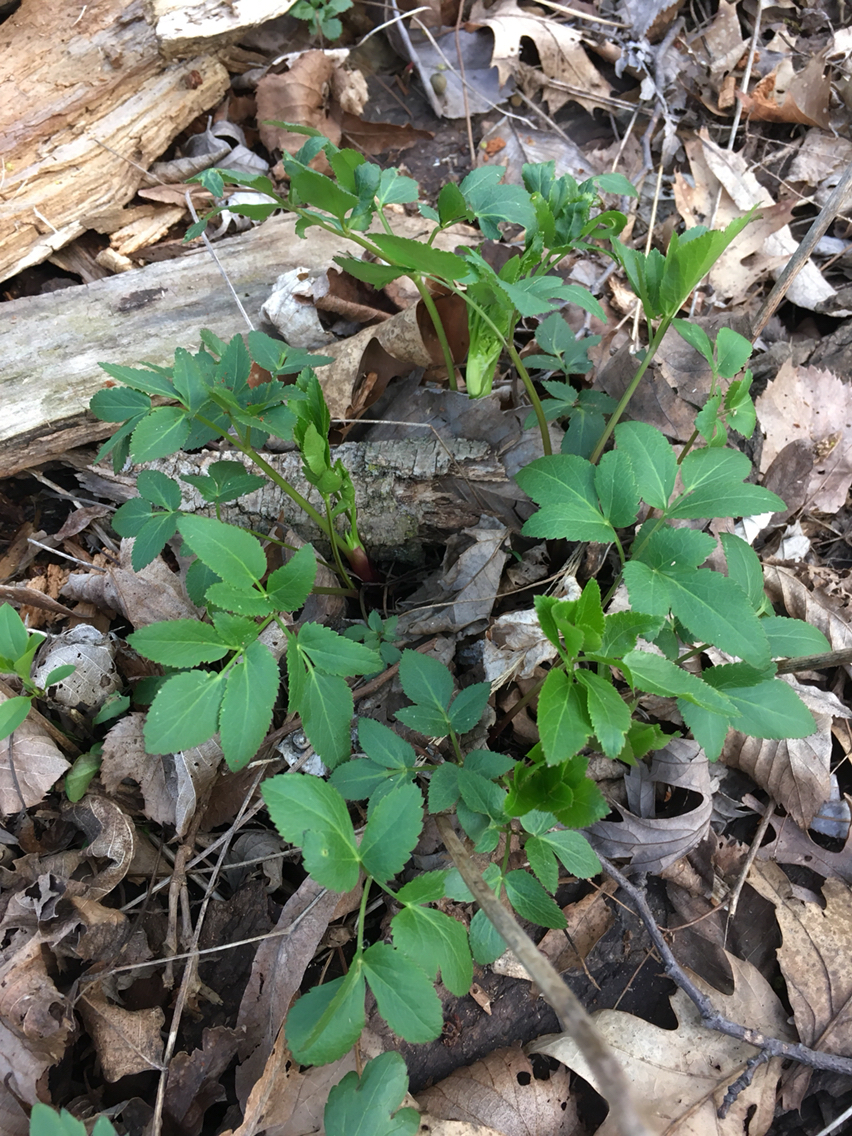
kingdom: Plantae
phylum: Tracheophyta
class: Magnoliopsida
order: Apiales
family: Apiaceae
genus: Zizia
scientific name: Zizia aurea
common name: Golden alexanders
